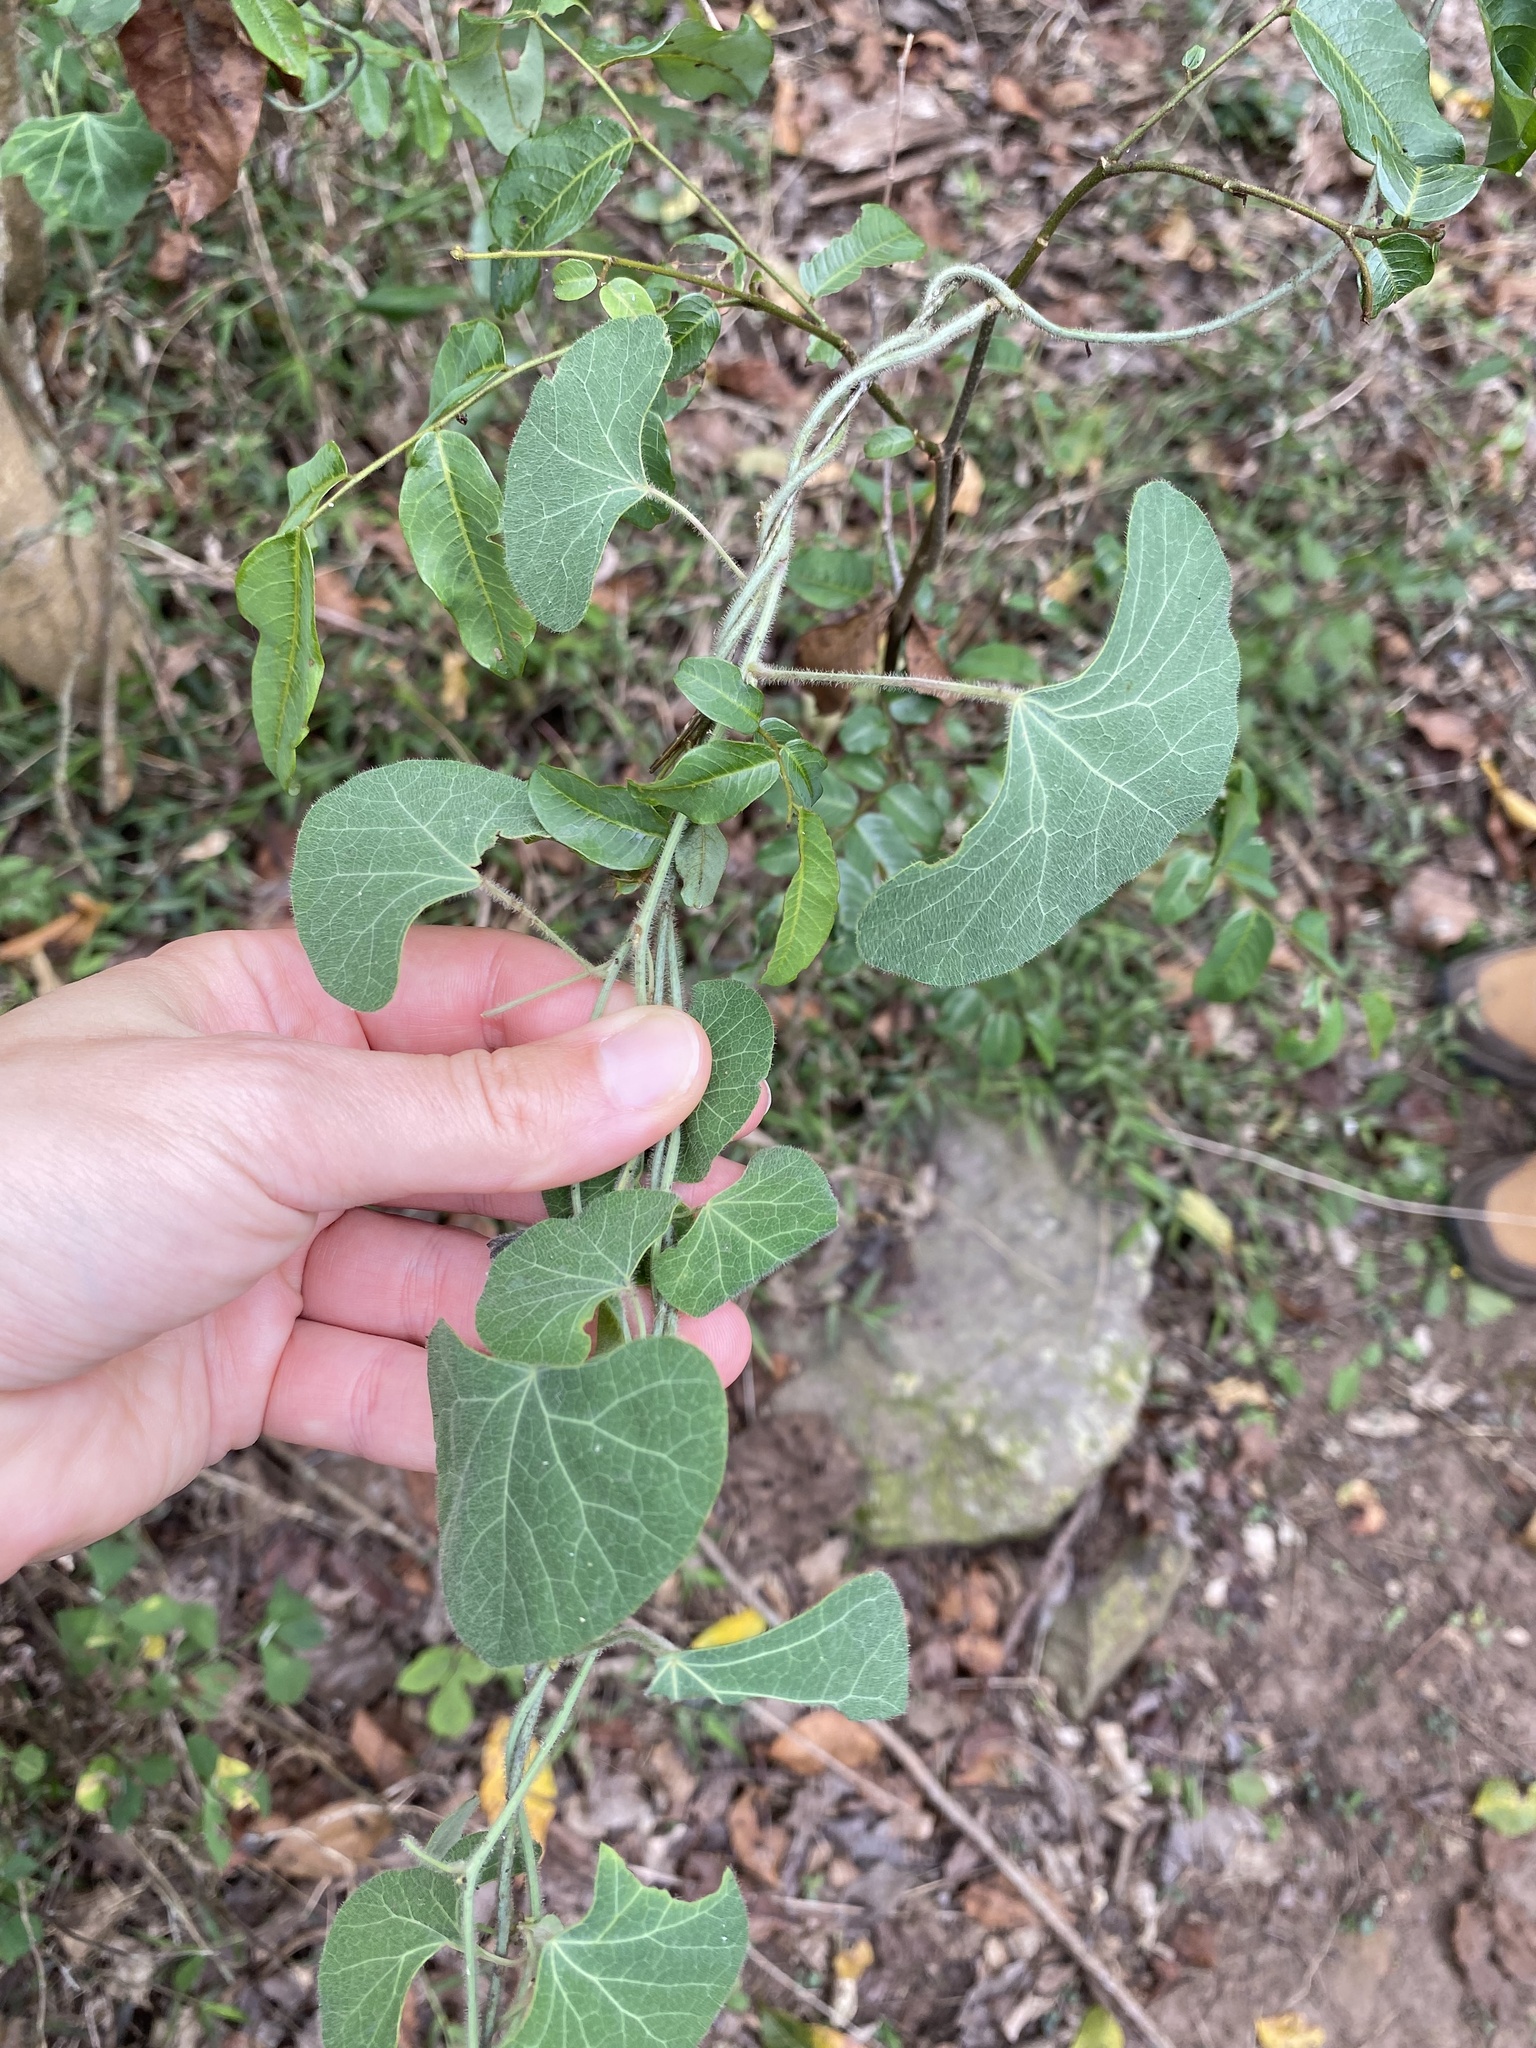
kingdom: Plantae
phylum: Tracheophyta
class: Magnoliopsida
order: Ranunculales
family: Menispermaceae
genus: Cissampelos
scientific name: Cissampelos torulosa
